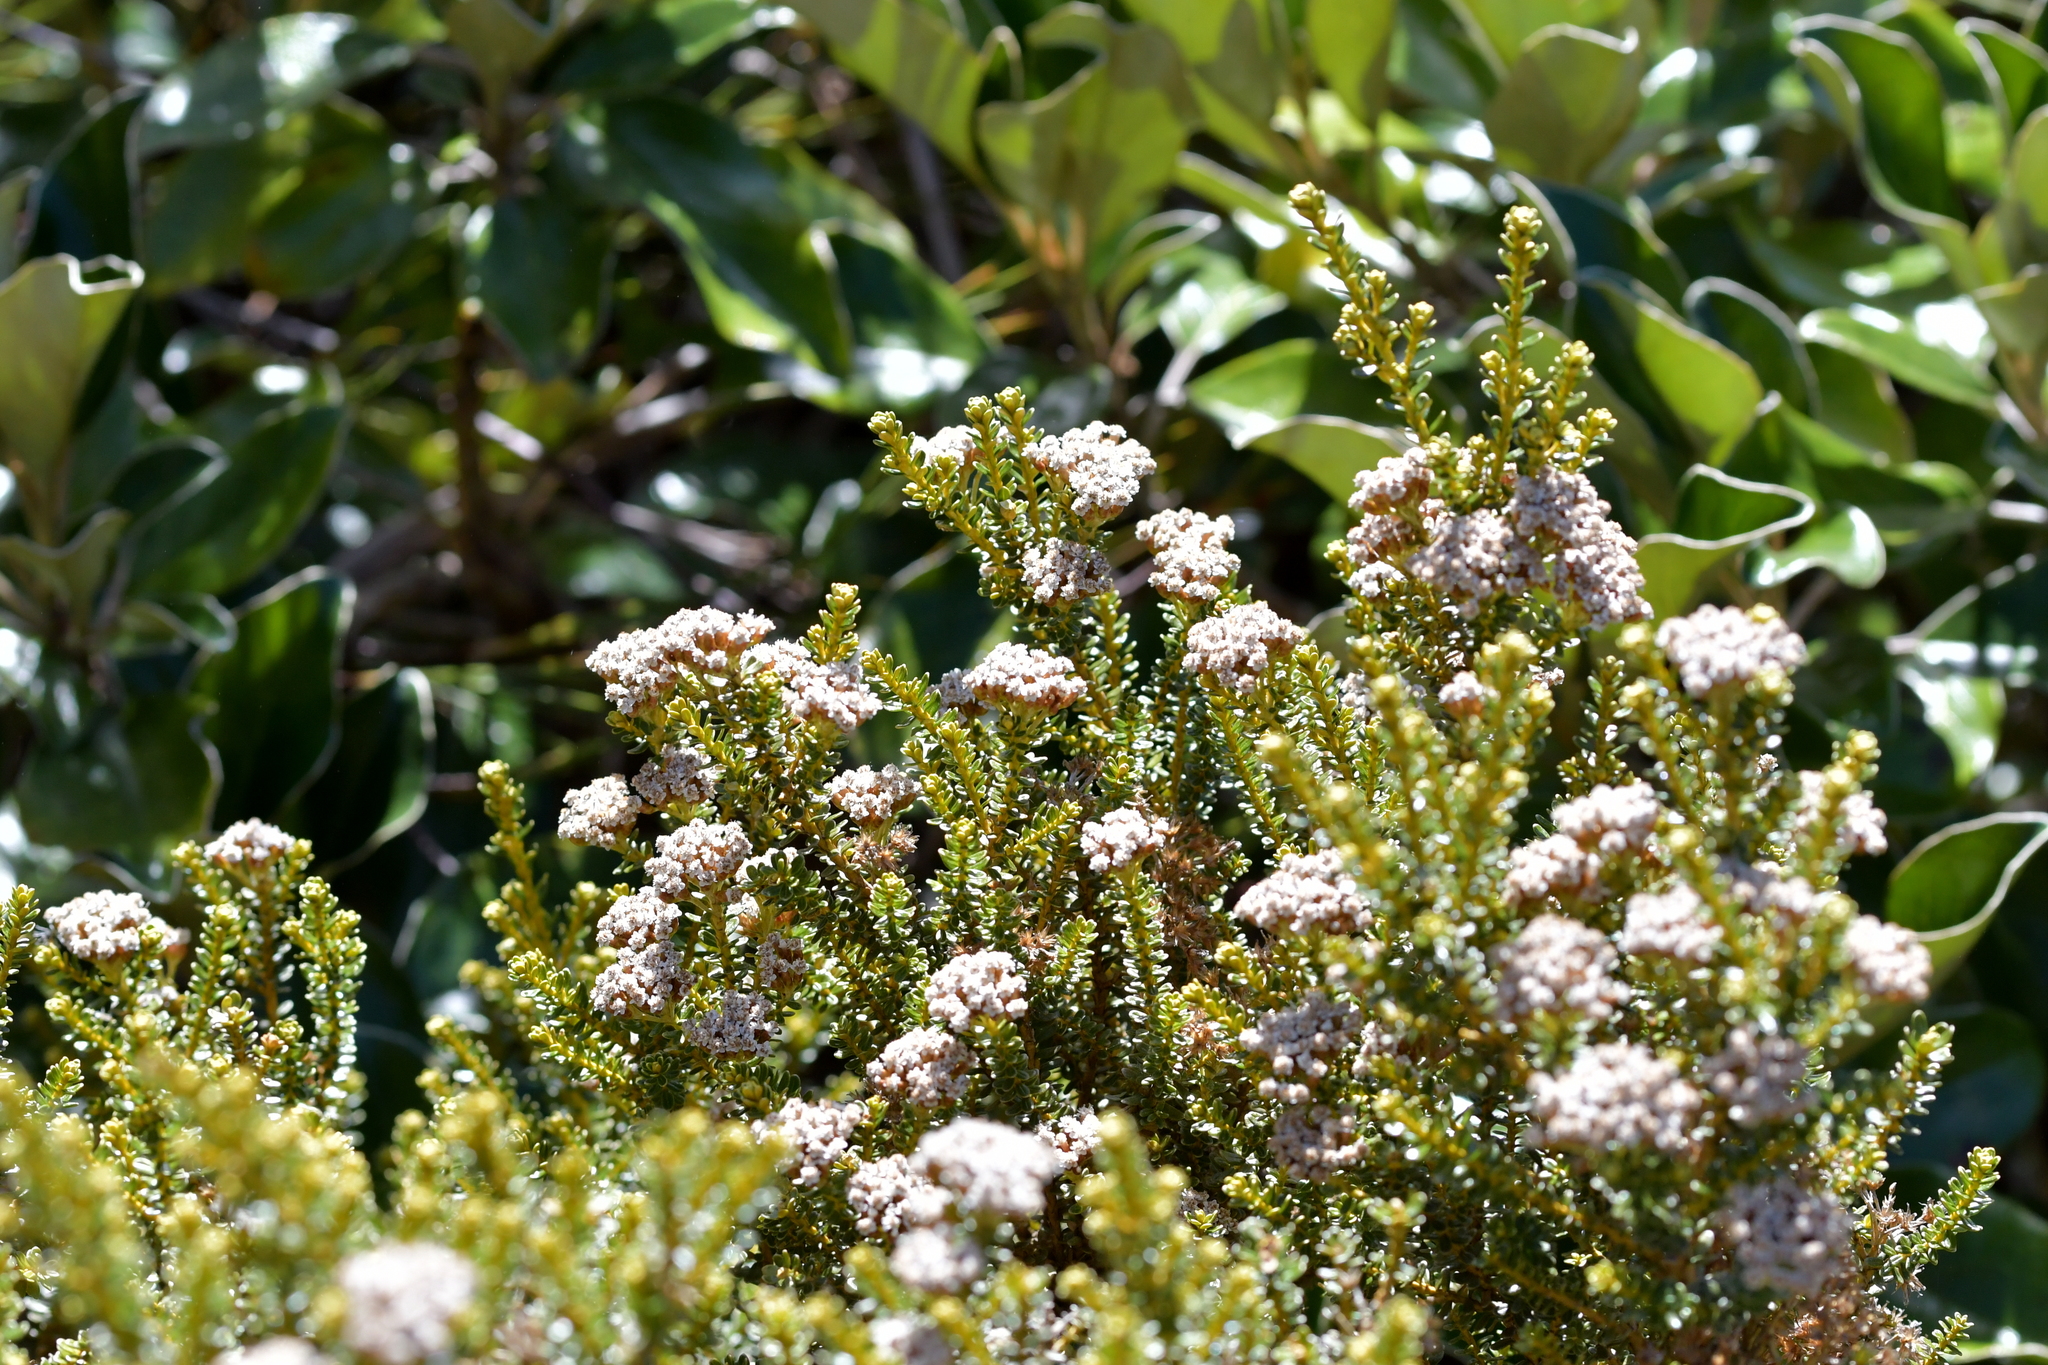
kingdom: Plantae
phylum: Tracheophyta
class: Magnoliopsida
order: Asterales
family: Asteraceae
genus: Ozothamnus
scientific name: Ozothamnus leptophyllus
